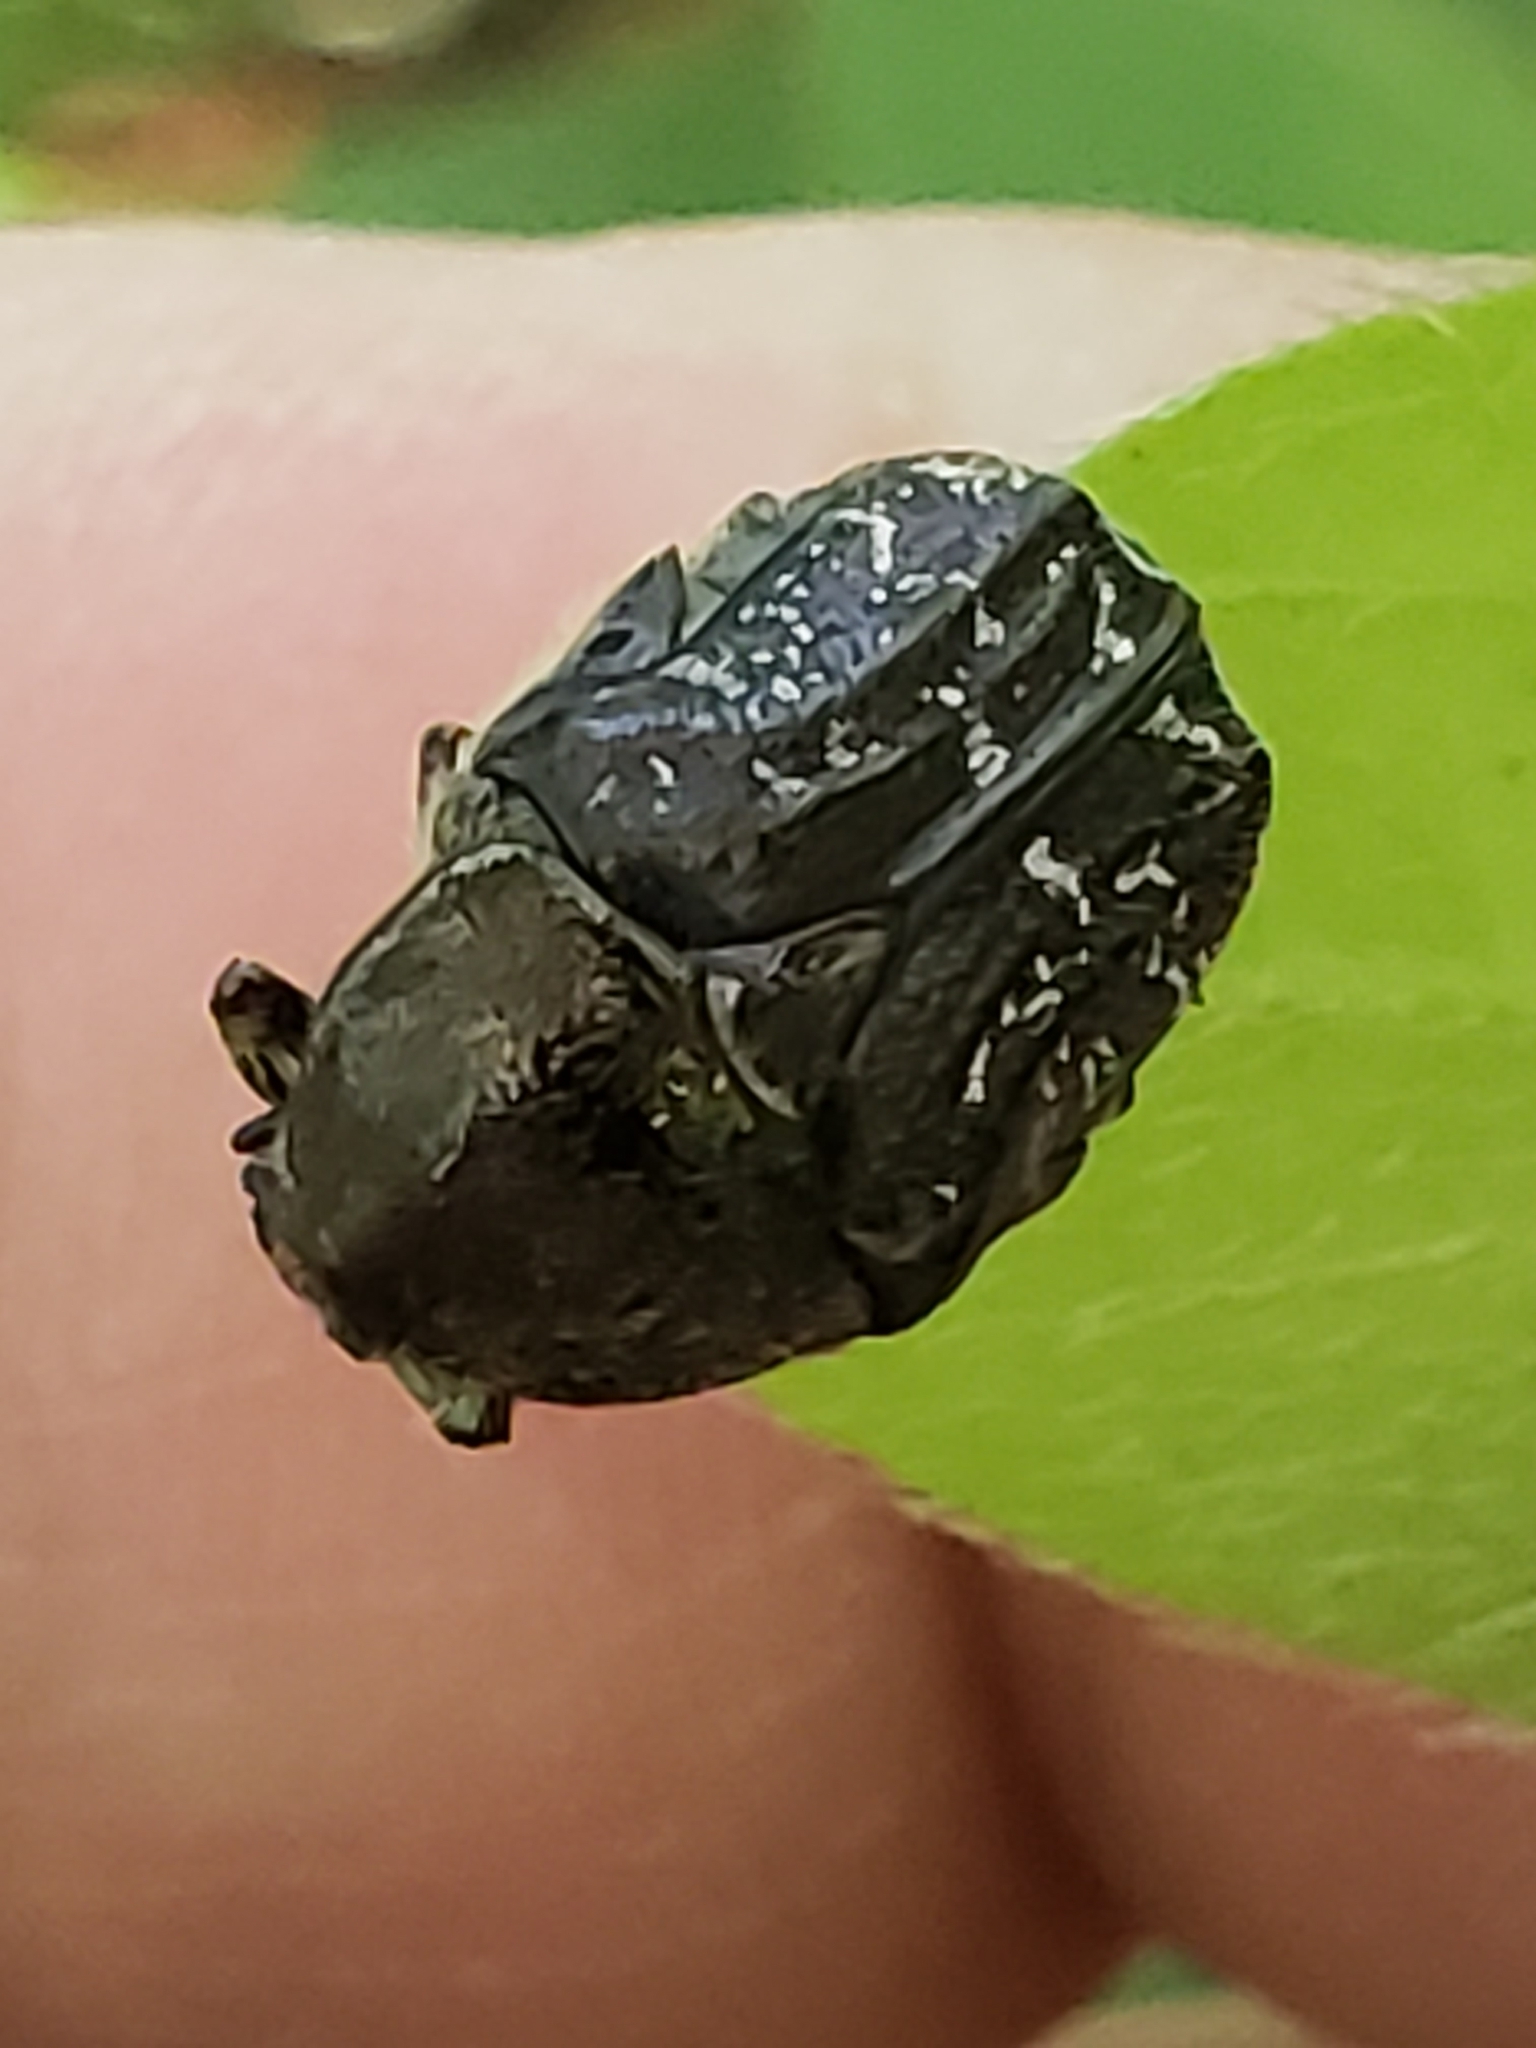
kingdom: Animalia
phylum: Arthropoda
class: Insecta
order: Coleoptera
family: Scarabaeidae
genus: Euphoria
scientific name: Euphoria sepulcralis
